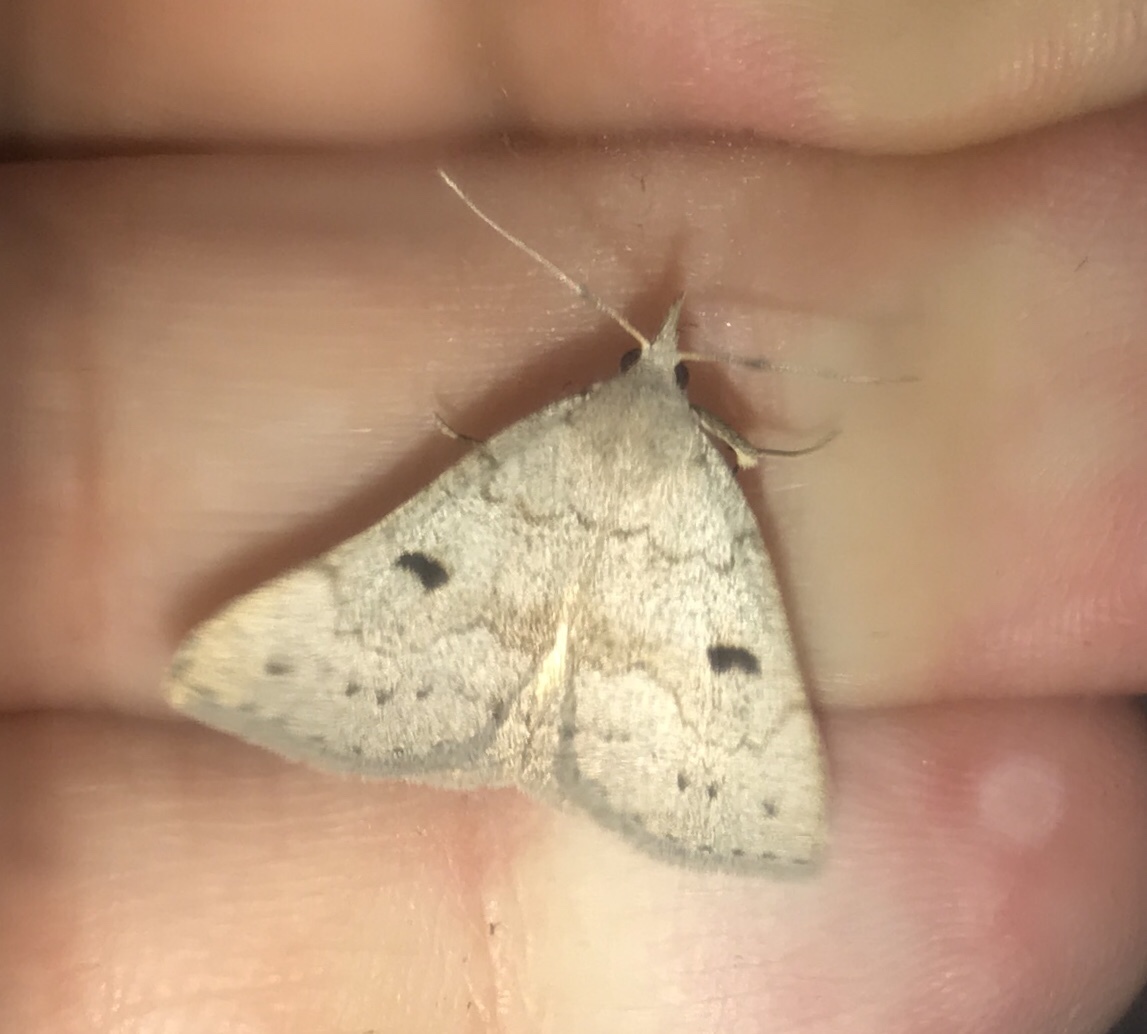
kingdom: Animalia
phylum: Arthropoda
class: Insecta
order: Lepidoptera
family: Erebidae
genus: Macrochilo
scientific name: Macrochilo morbidalis
